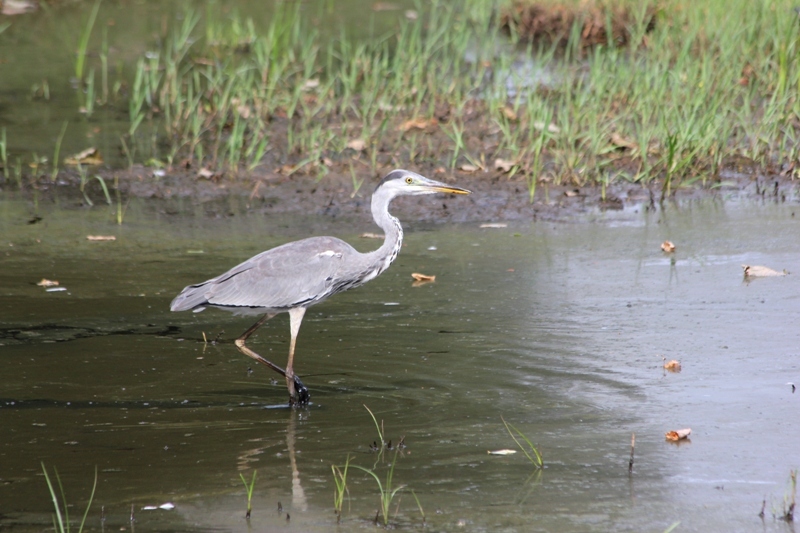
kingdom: Animalia
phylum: Chordata
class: Aves
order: Pelecaniformes
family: Ardeidae
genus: Ardea
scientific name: Ardea cinerea
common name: Grey heron
